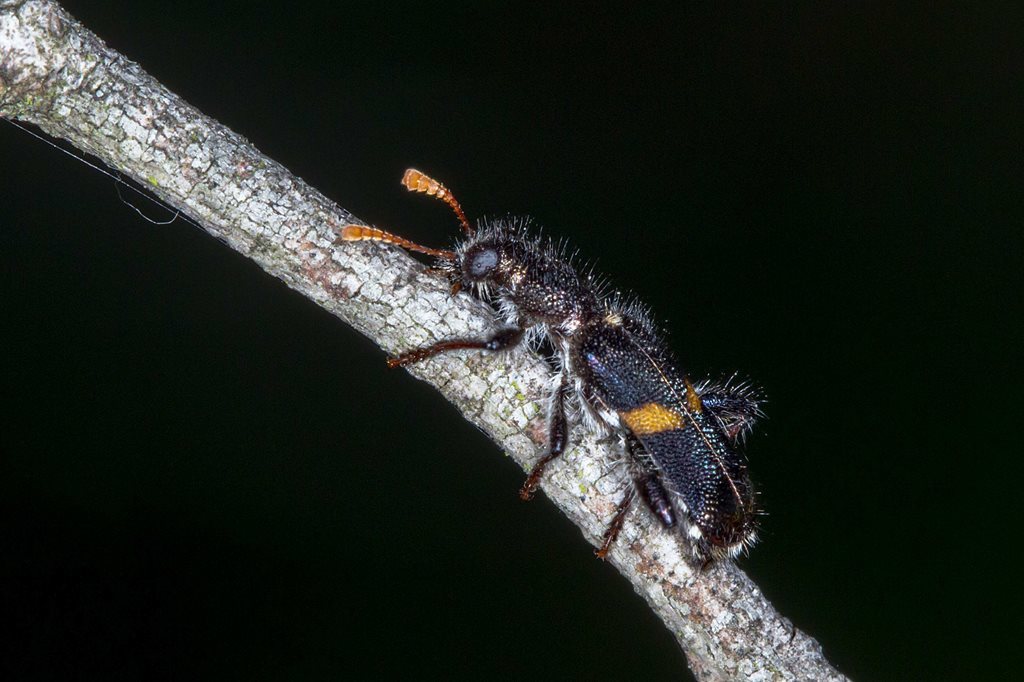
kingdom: Animalia
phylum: Arthropoda
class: Insecta
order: Coleoptera
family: Cleridae
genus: Eleale
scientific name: Eleale
